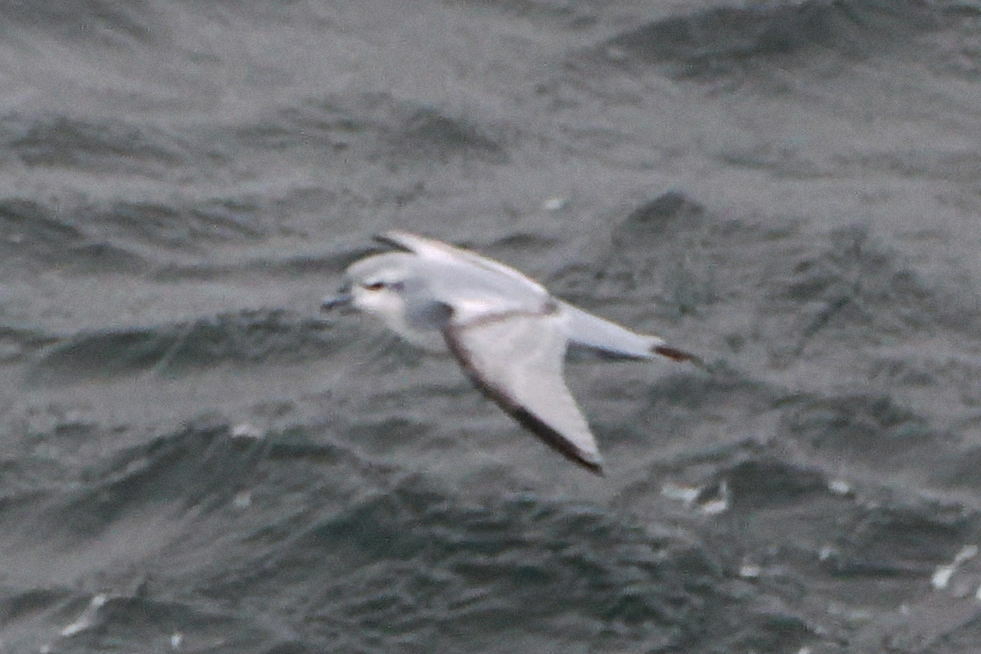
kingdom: Animalia
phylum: Chordata
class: Aves
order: Procellariiformes
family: Procellariidae
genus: Pachyptila
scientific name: Pachyptila turtur
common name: Fairy prion
